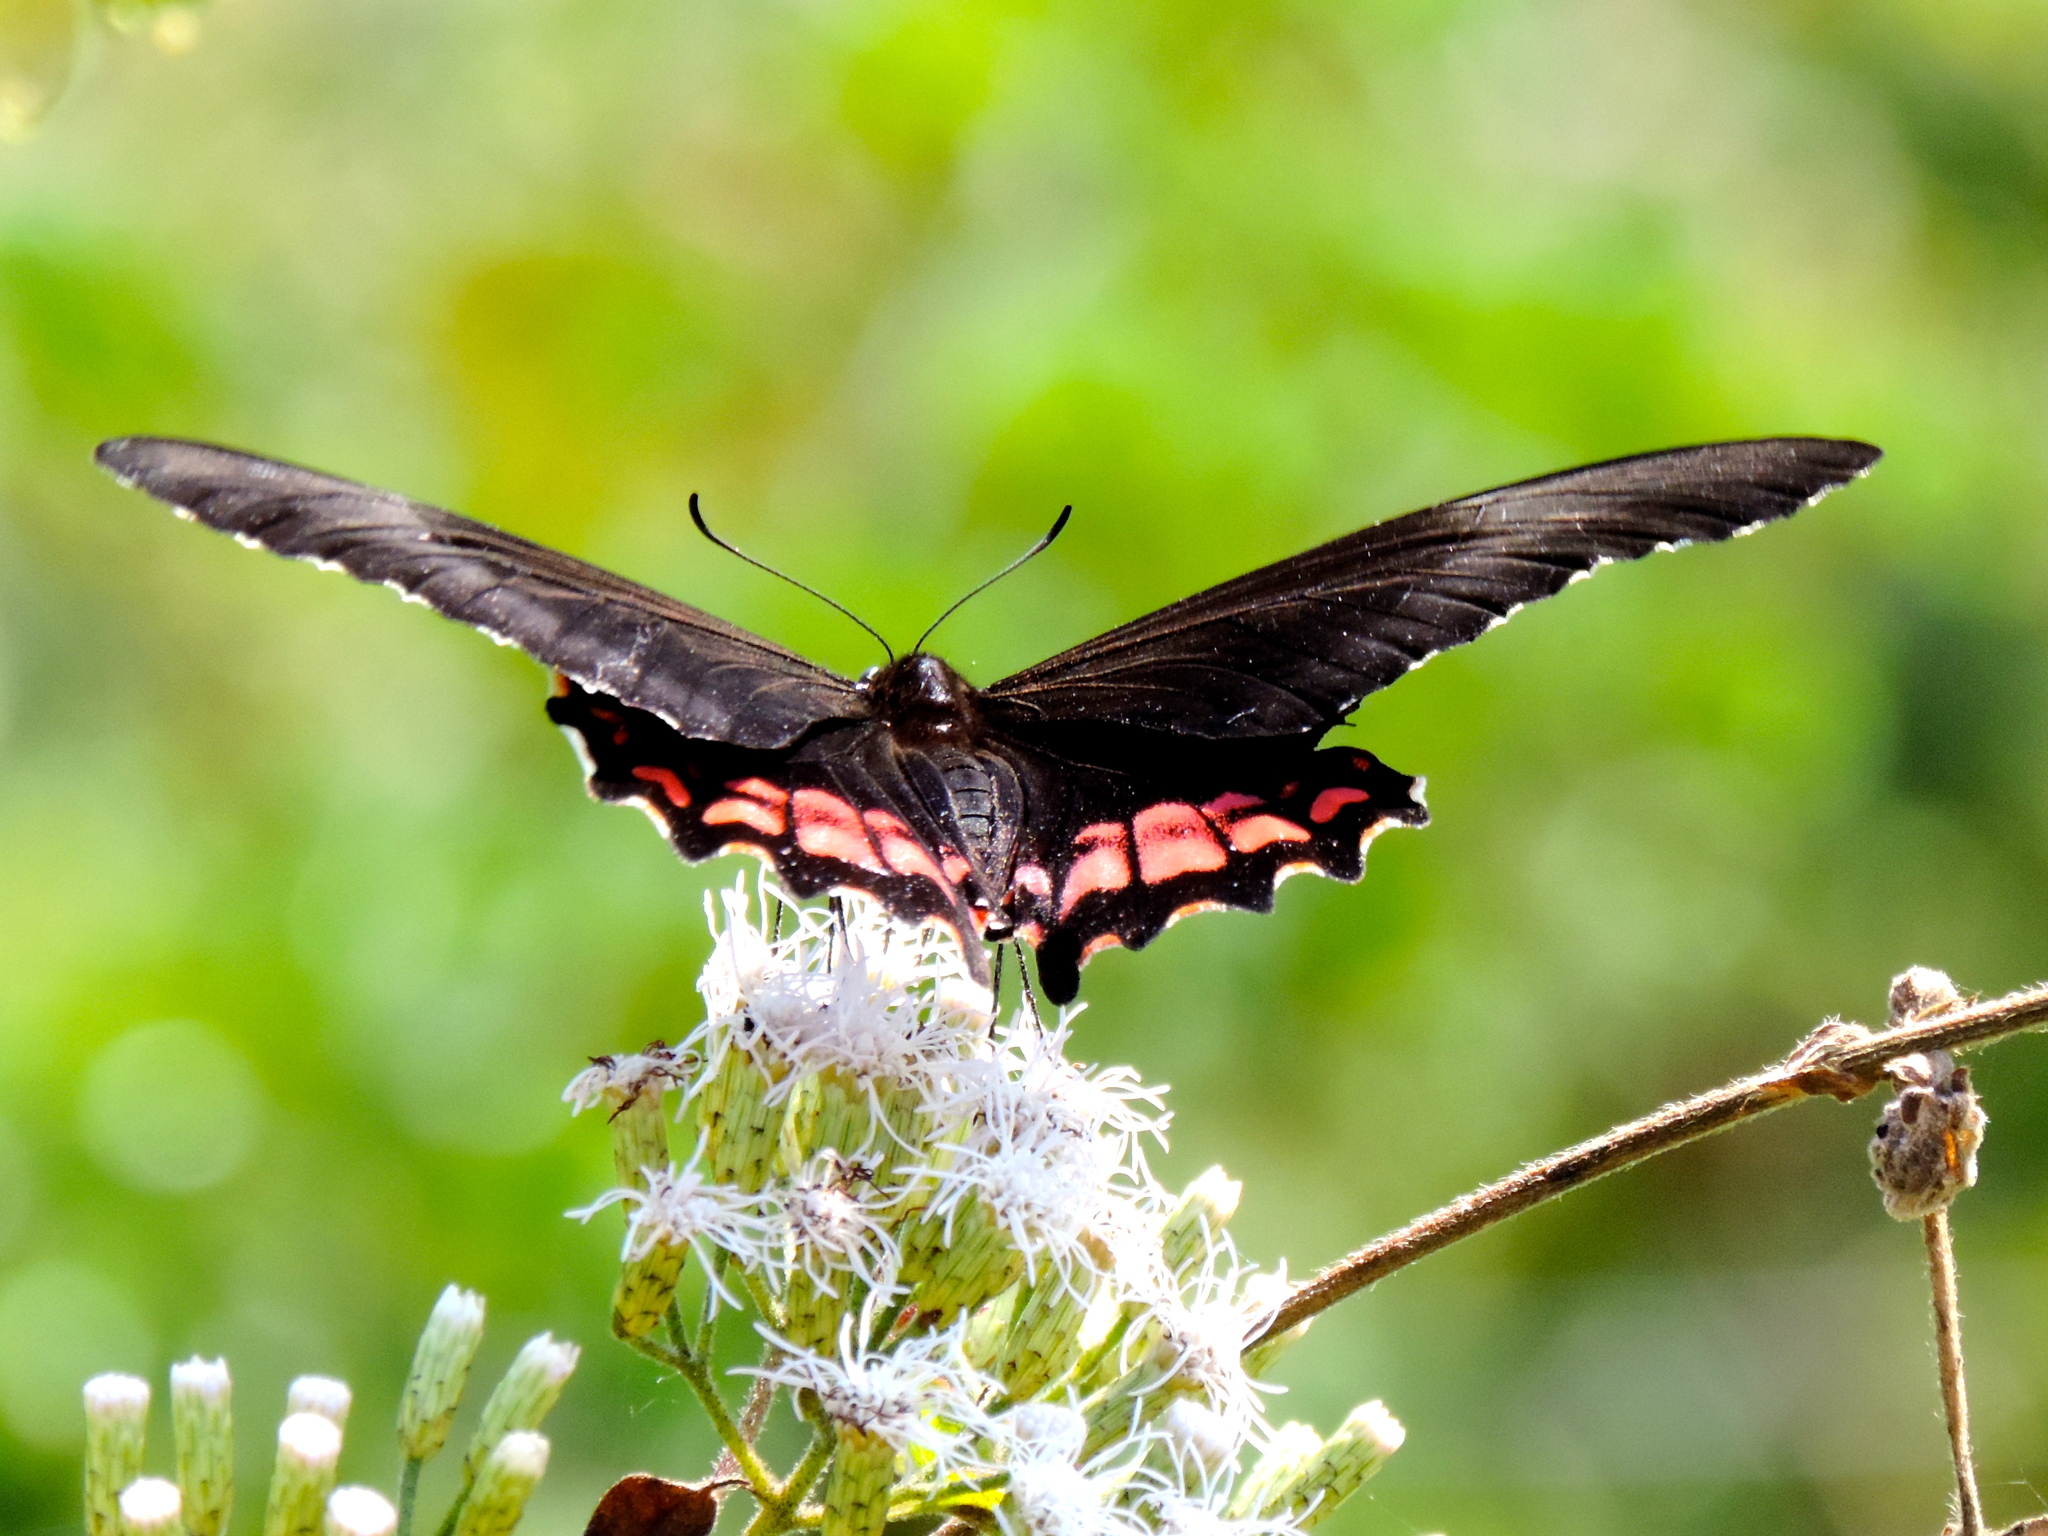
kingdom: Animalia
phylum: Arthropoda
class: Insecta
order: Lepidoptera
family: Papilionidae
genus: Papilio
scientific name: Papilio anchisiades
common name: Idaes swallowtail
